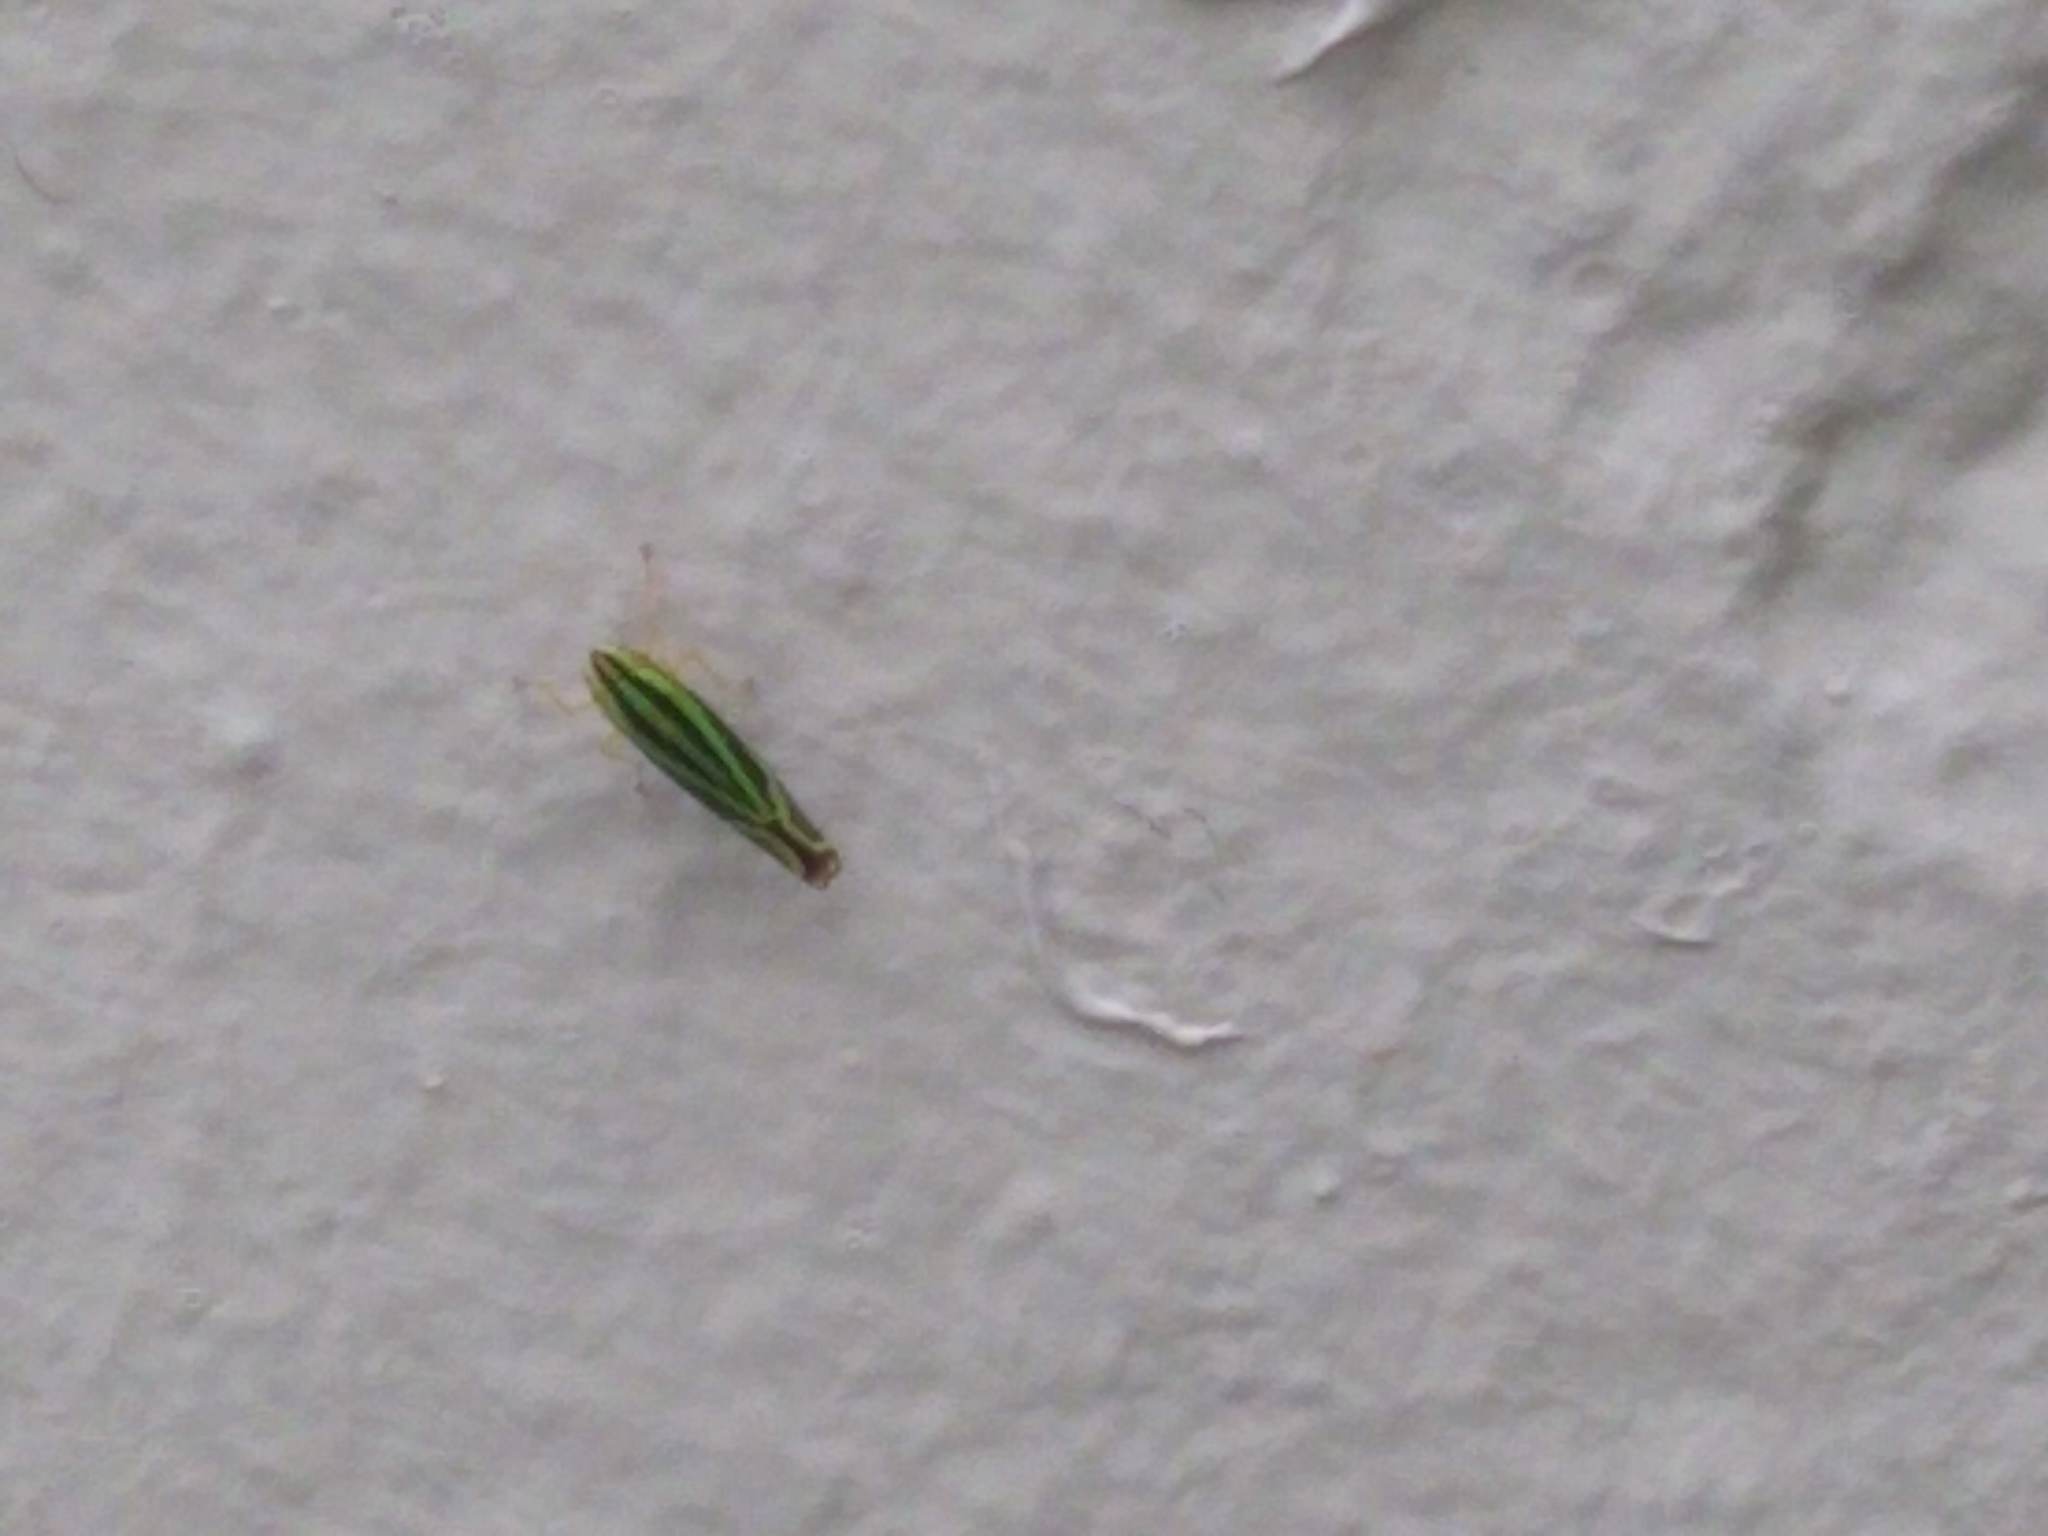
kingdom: Animalia
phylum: Arthropoda
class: Insecta
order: Hemiptera
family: Cicadellidae
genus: Sibovia
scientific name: Sibovia sagata
